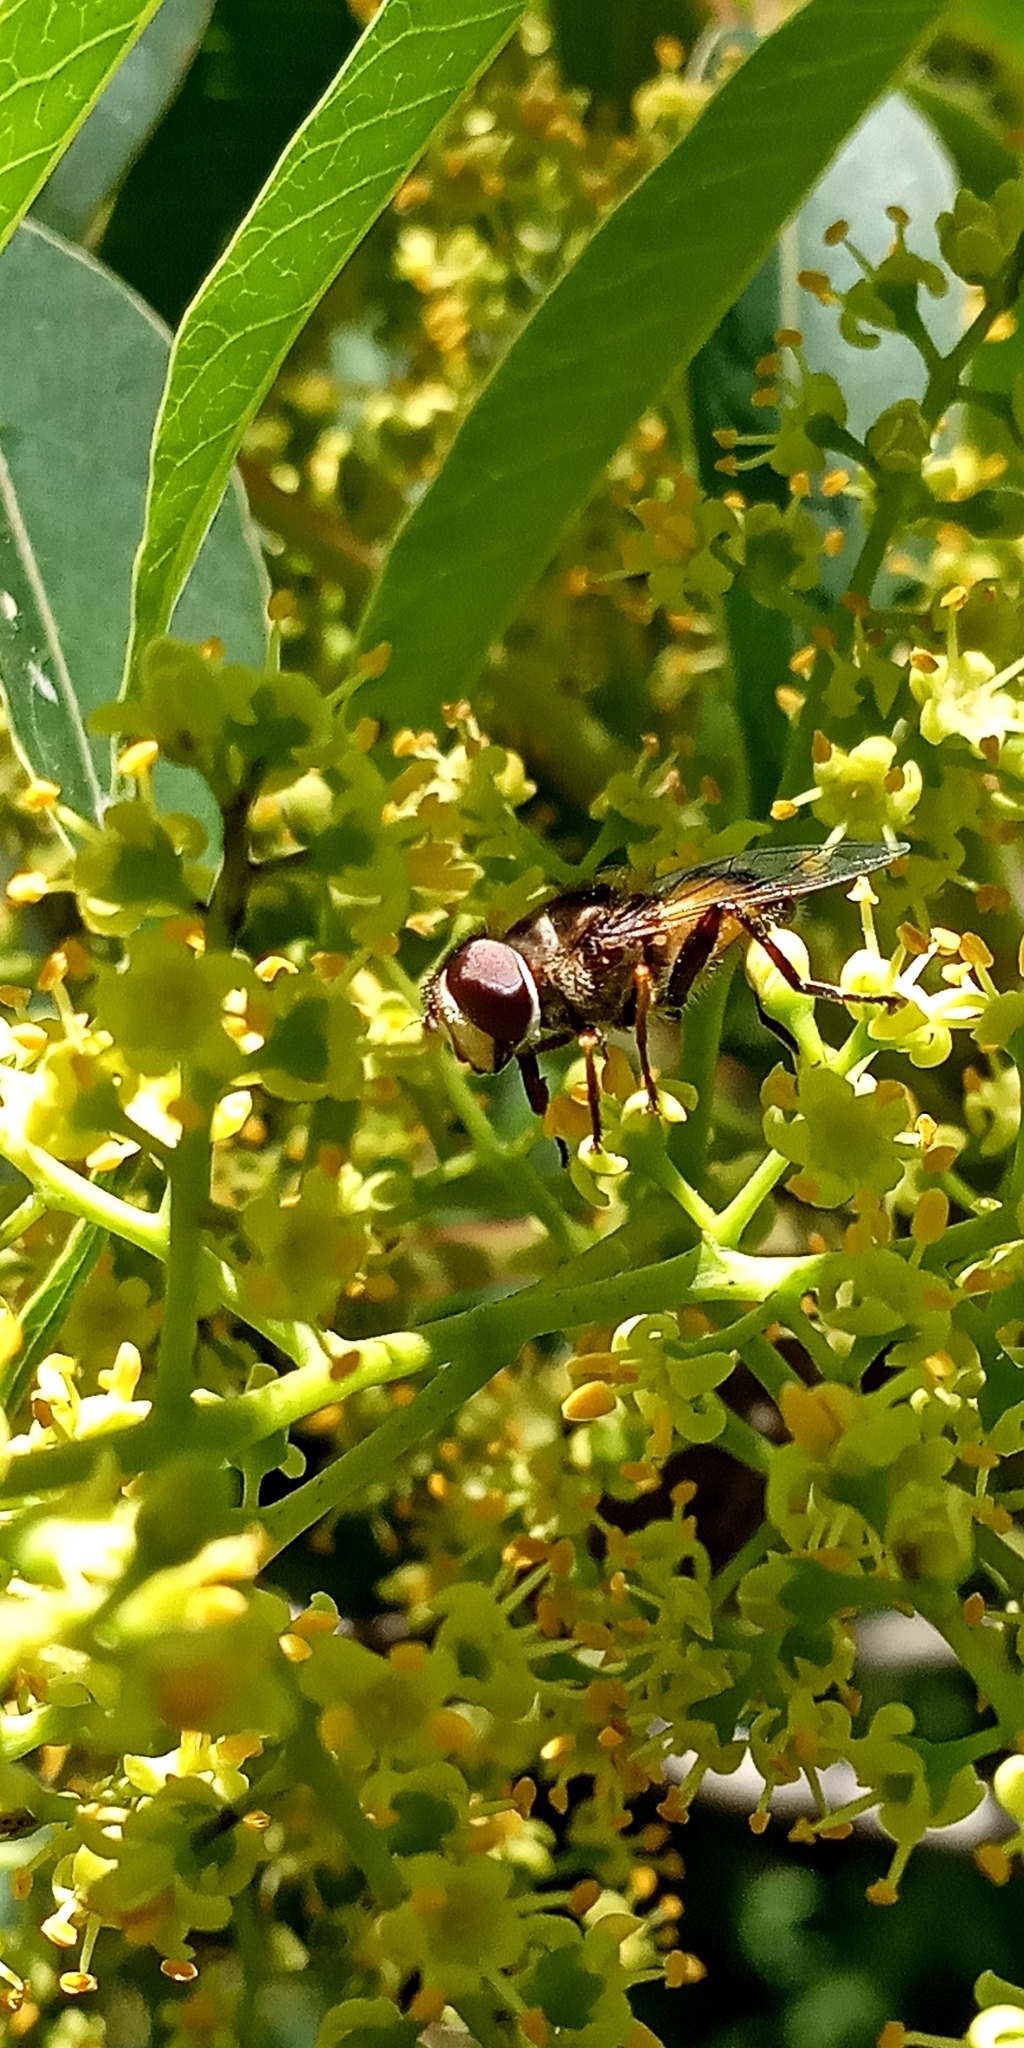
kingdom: Animalia
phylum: Arthropoda
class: Insecta
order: Diptera
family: Syrphidae
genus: Palpada
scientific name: Palpada
